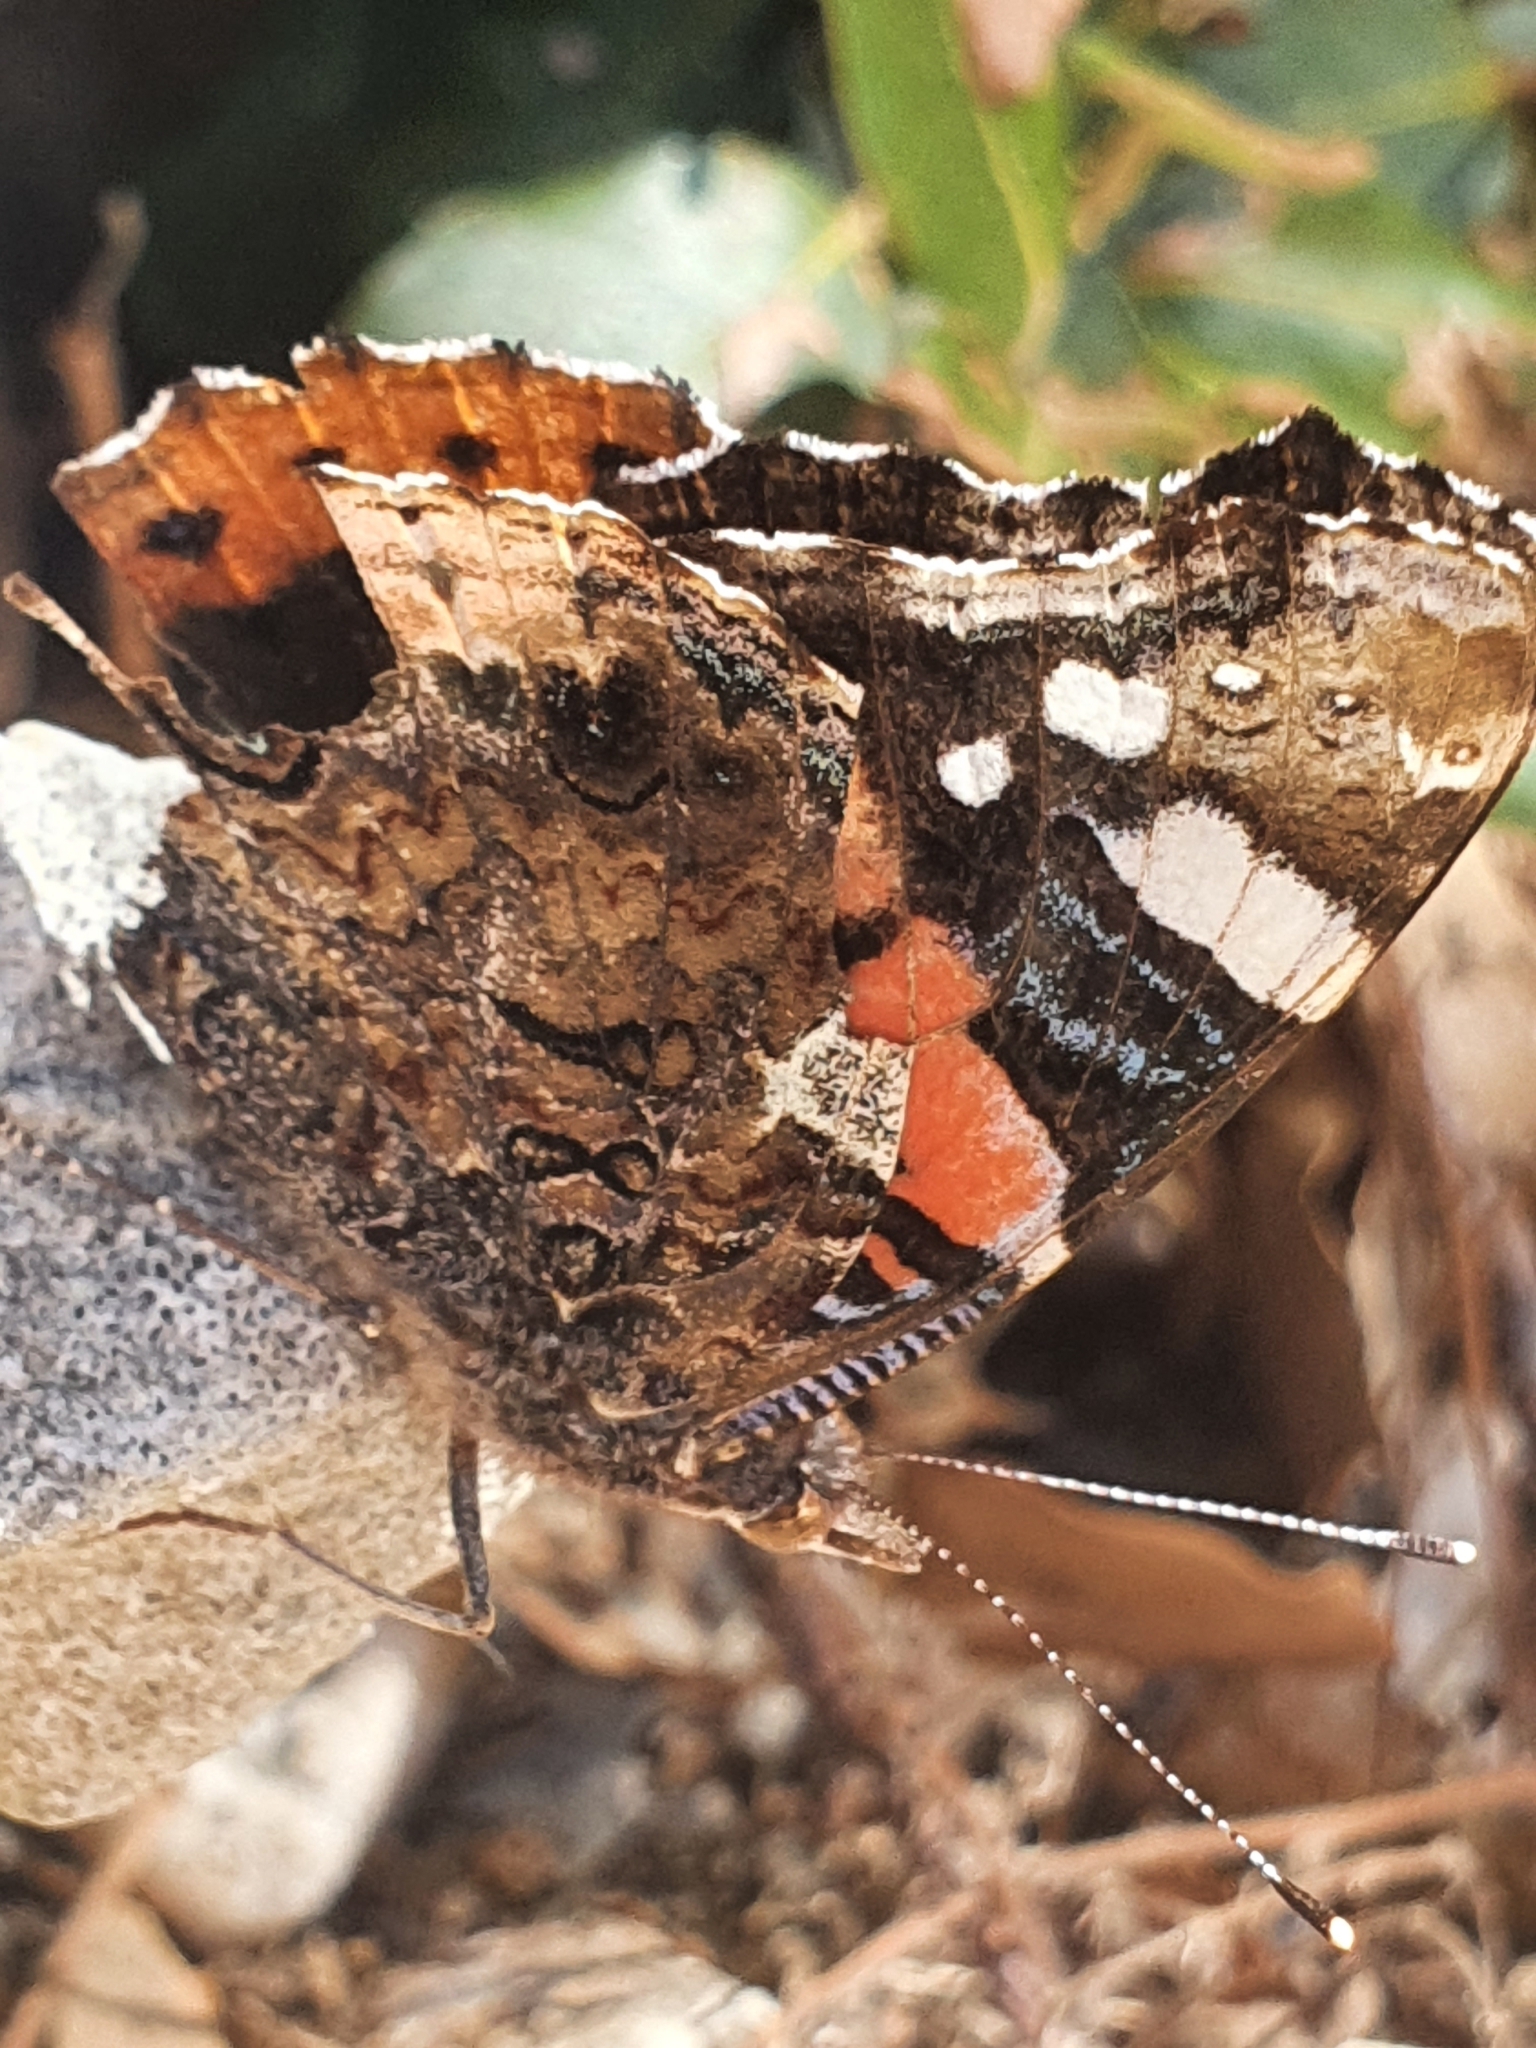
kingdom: Animalia
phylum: Arthropoda
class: Insecta
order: Lepidoptera
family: Nymphalidae
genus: Vanessa
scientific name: Vanessa atalanta
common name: Red admiral
